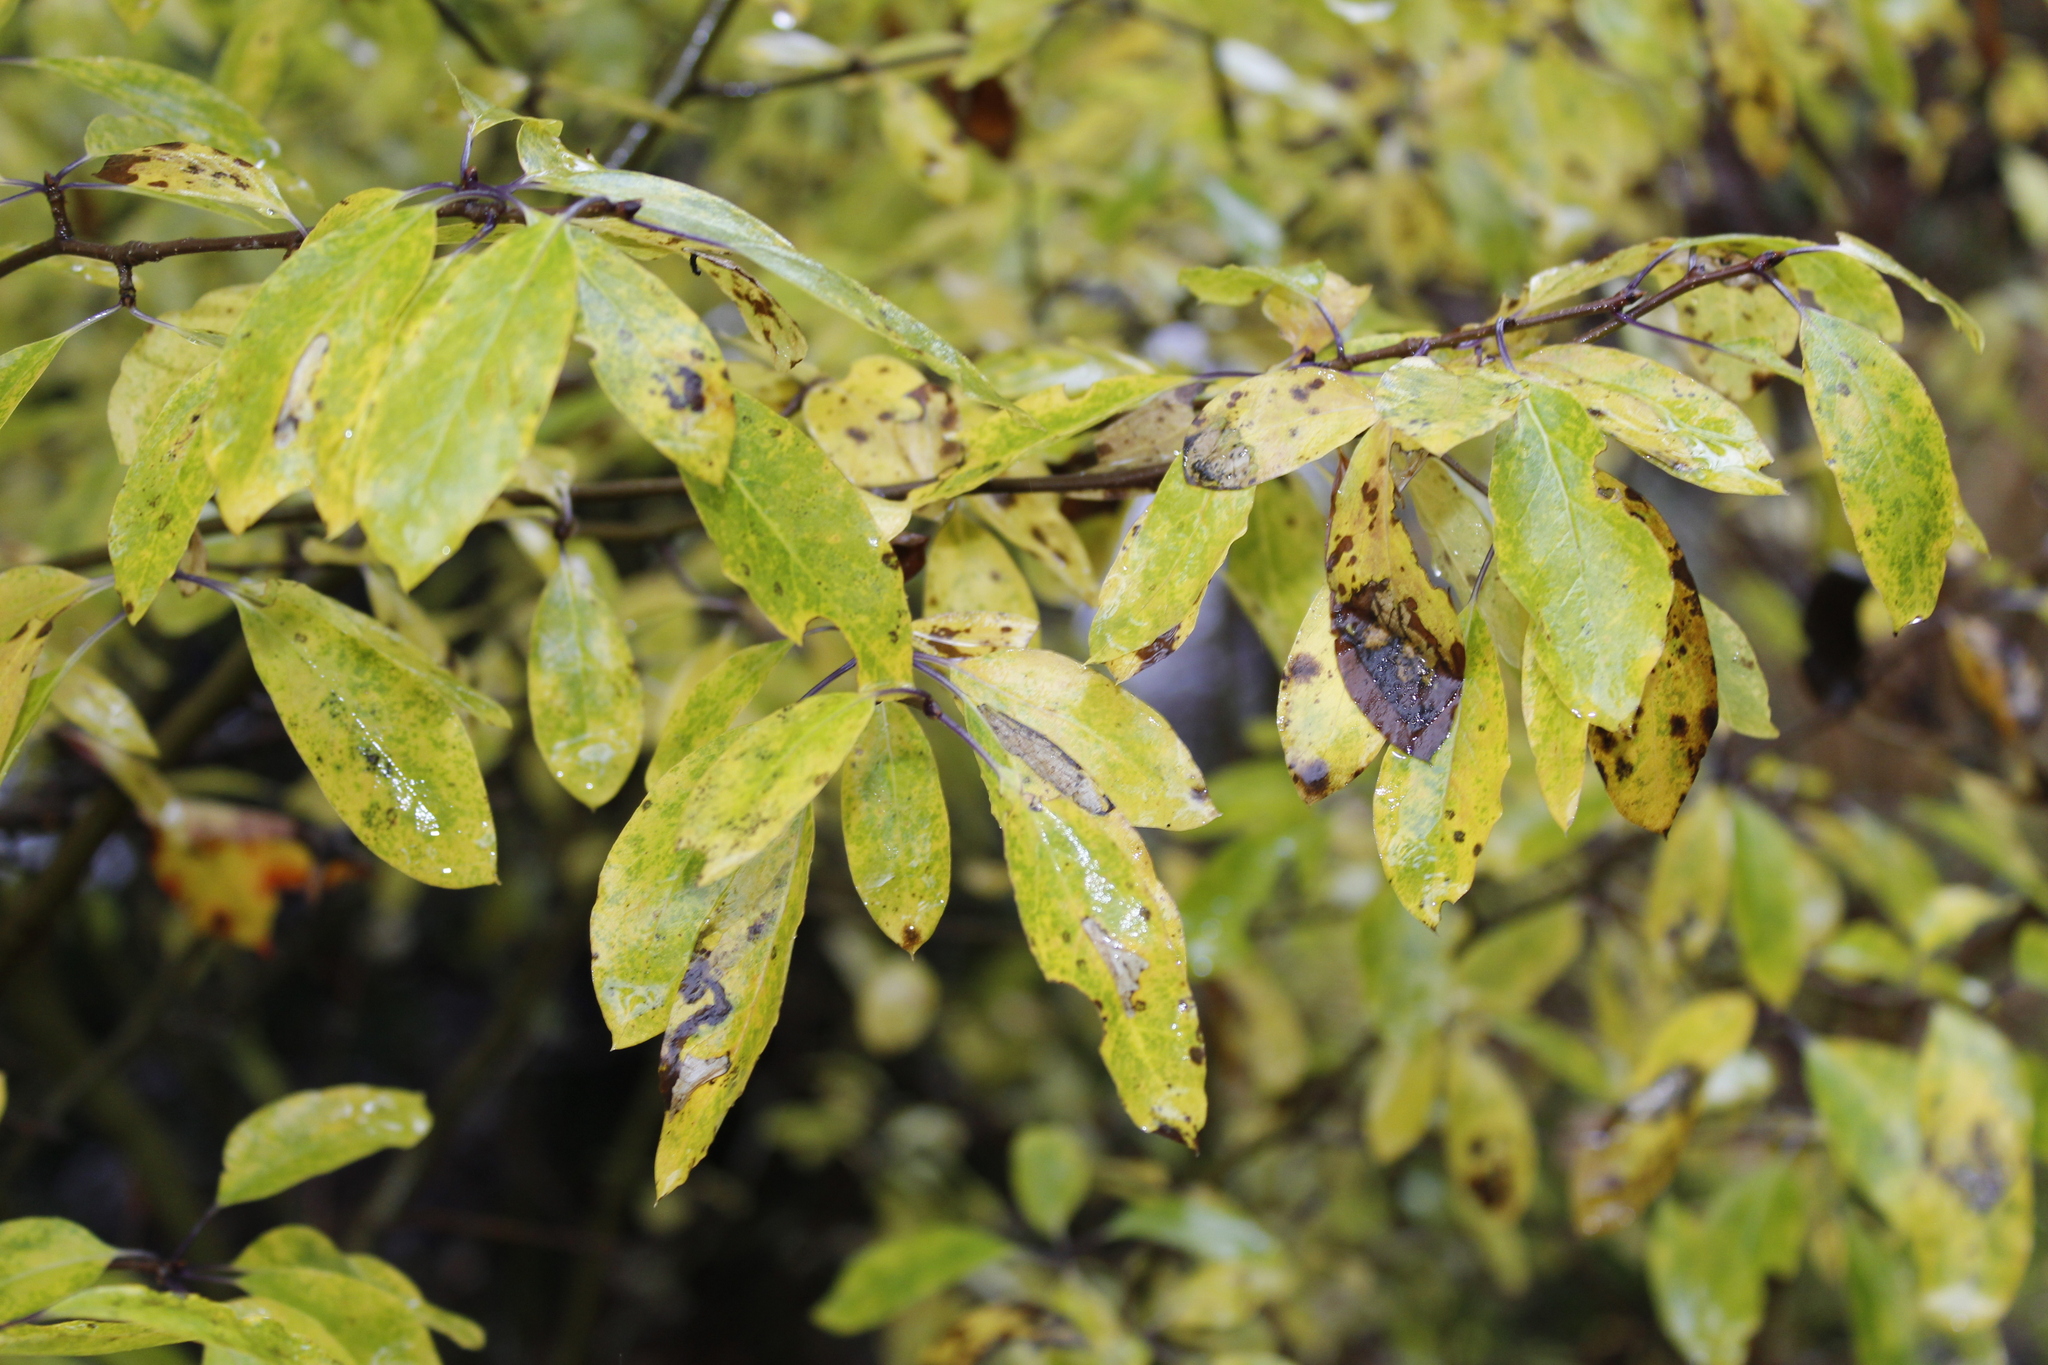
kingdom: Plantae
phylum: Tracheophyta
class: Magnoliopsida
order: Aquifoliales
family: Aquifoliaceae
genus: Ilex
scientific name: Ilex mucronata
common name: Catberry
